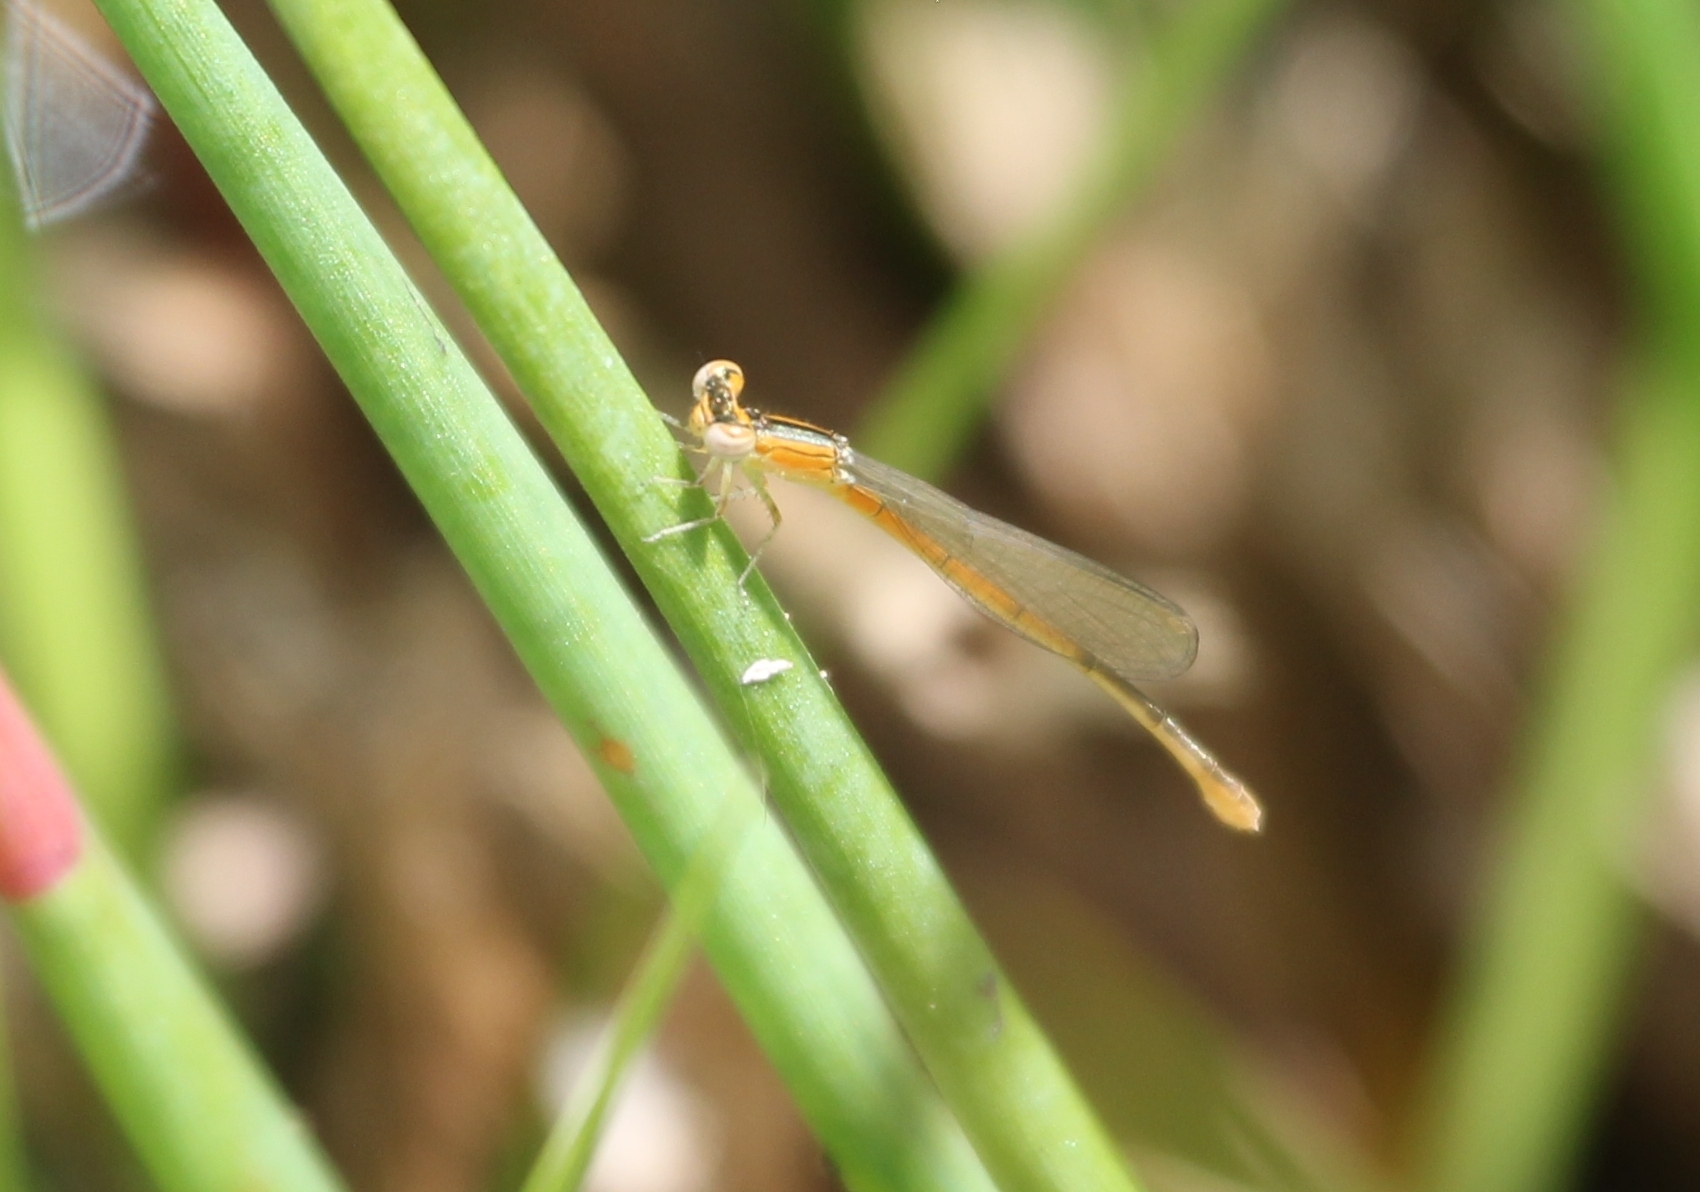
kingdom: Animalia
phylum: Arthropoda
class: Insecta
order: Odonata
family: Coenagrionidae
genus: Ischnura
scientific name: Ischnura hastata
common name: Citrine forktail
